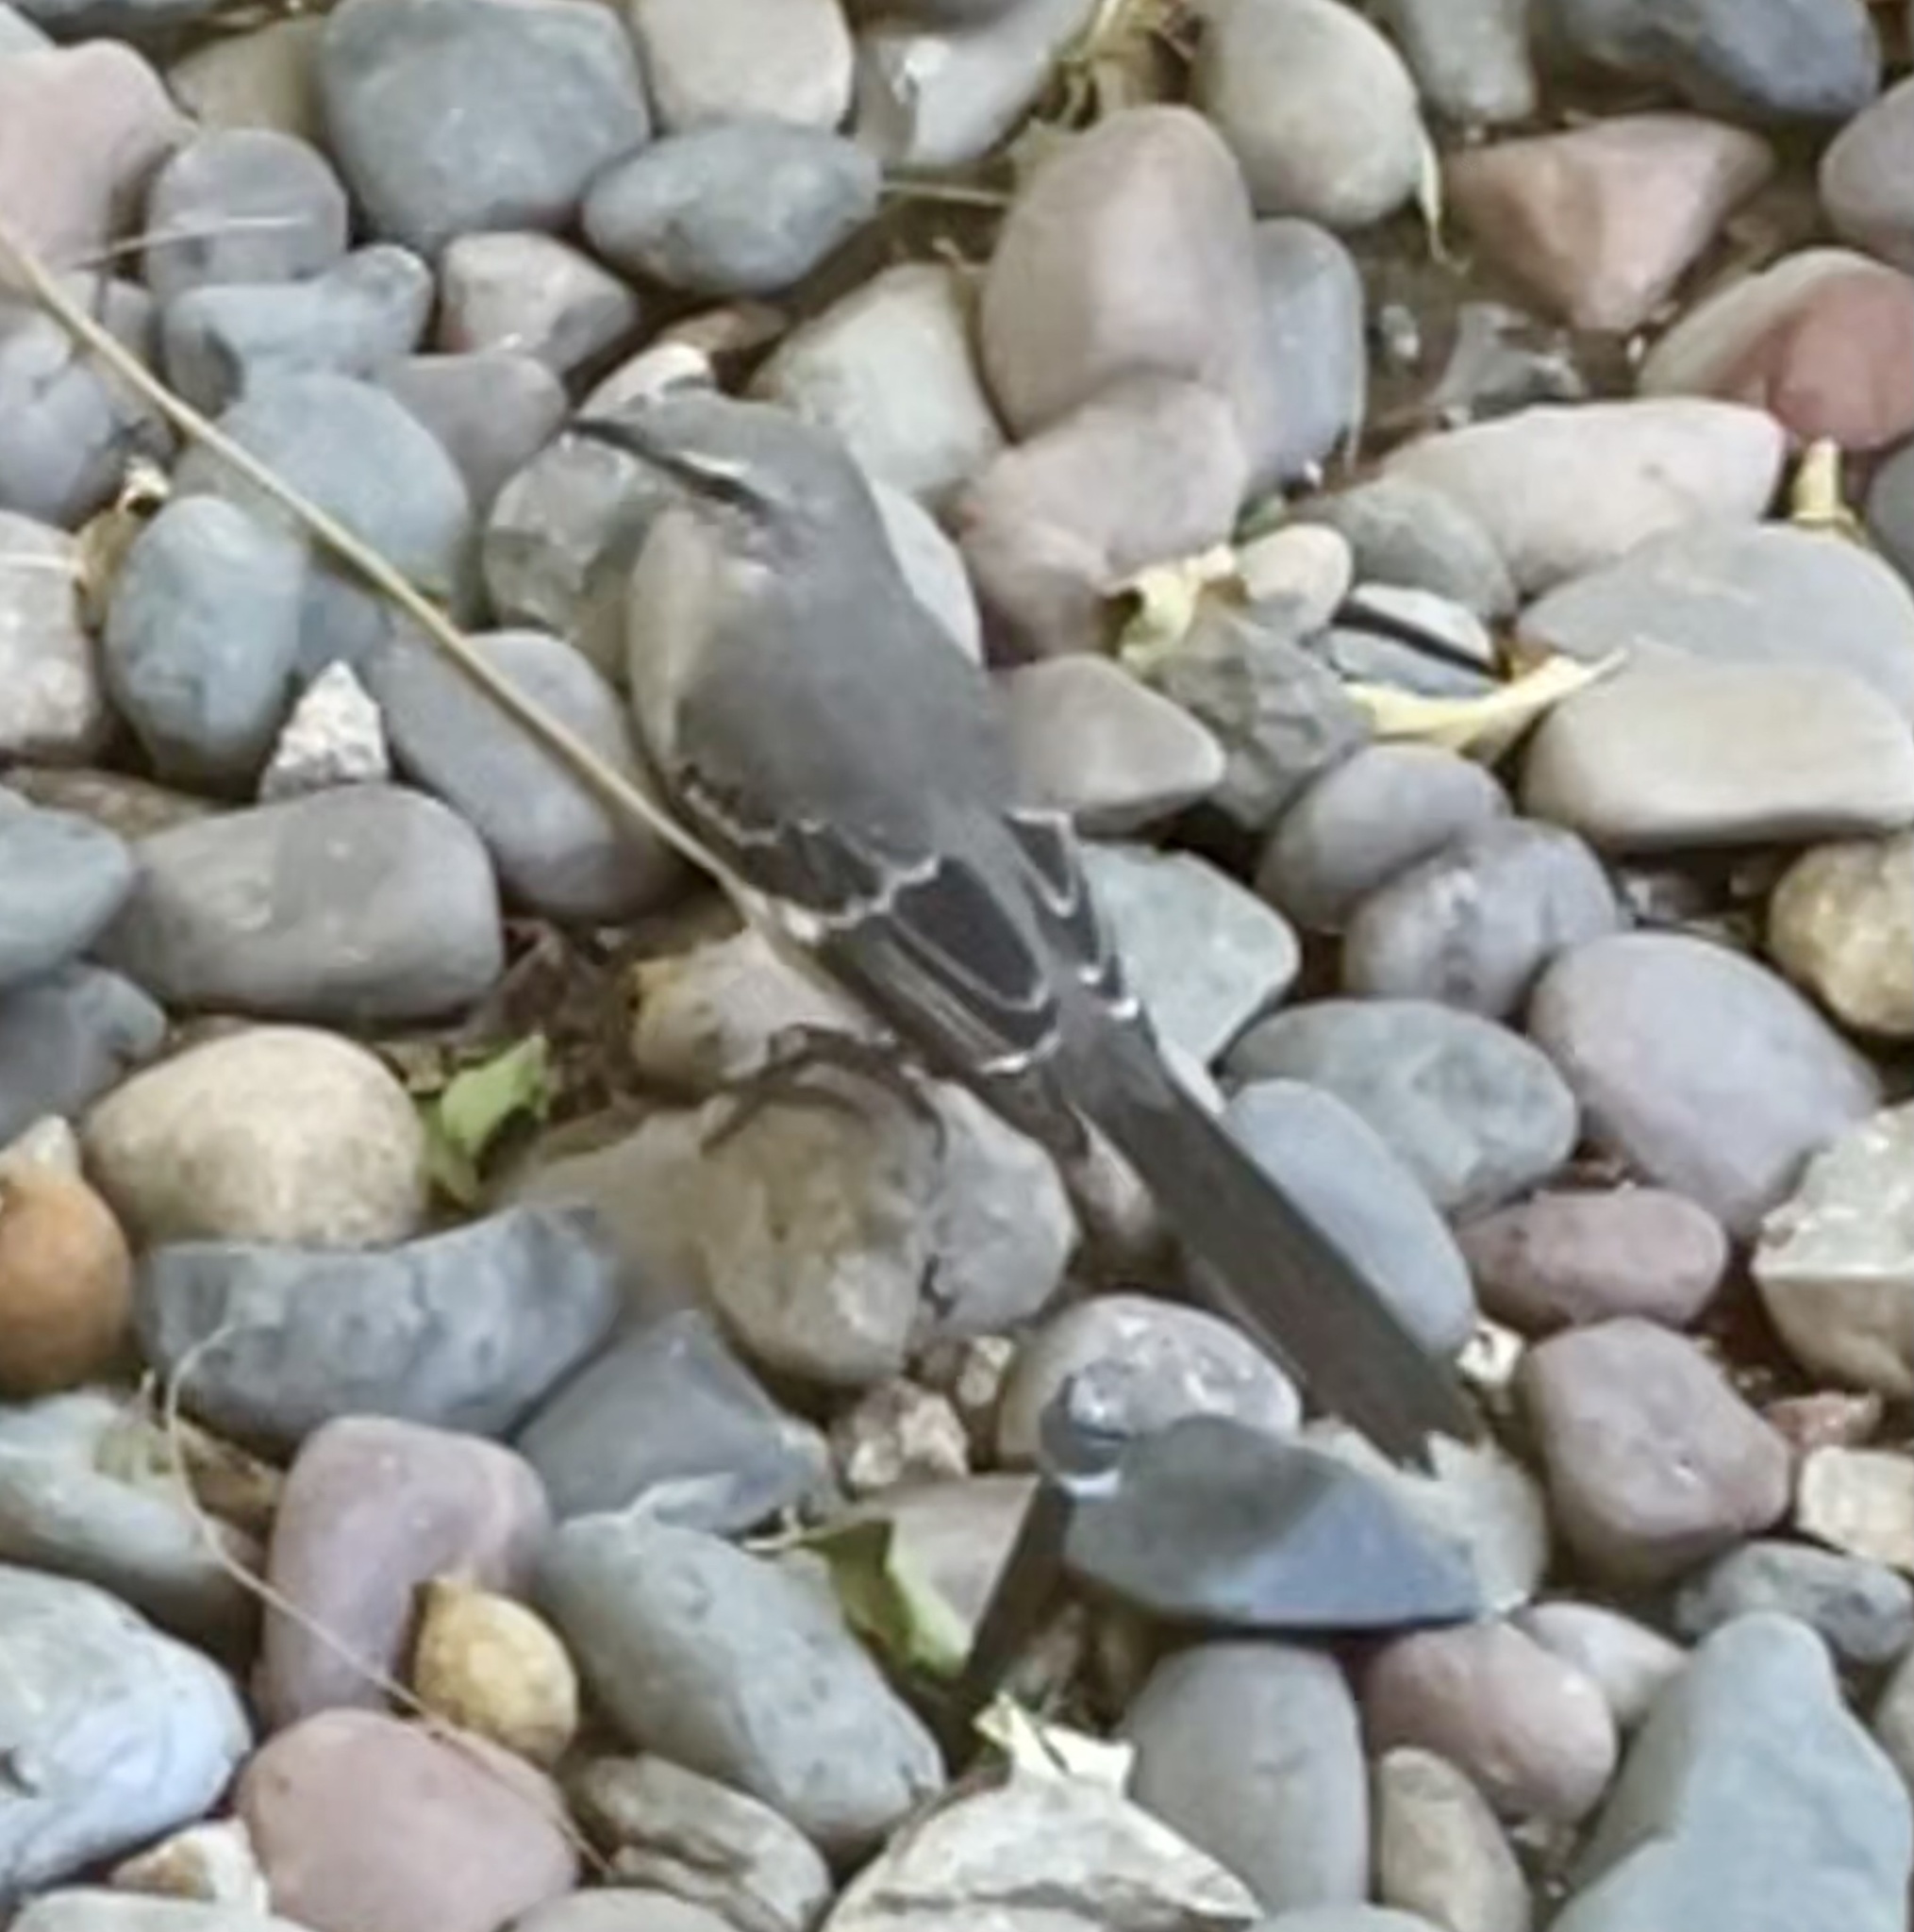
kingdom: Animalia
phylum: Chordata
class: Aves
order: Passeriformes
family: Mimidae
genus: Mimus
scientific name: Mimus polyglottos
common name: Northern mockingbird
